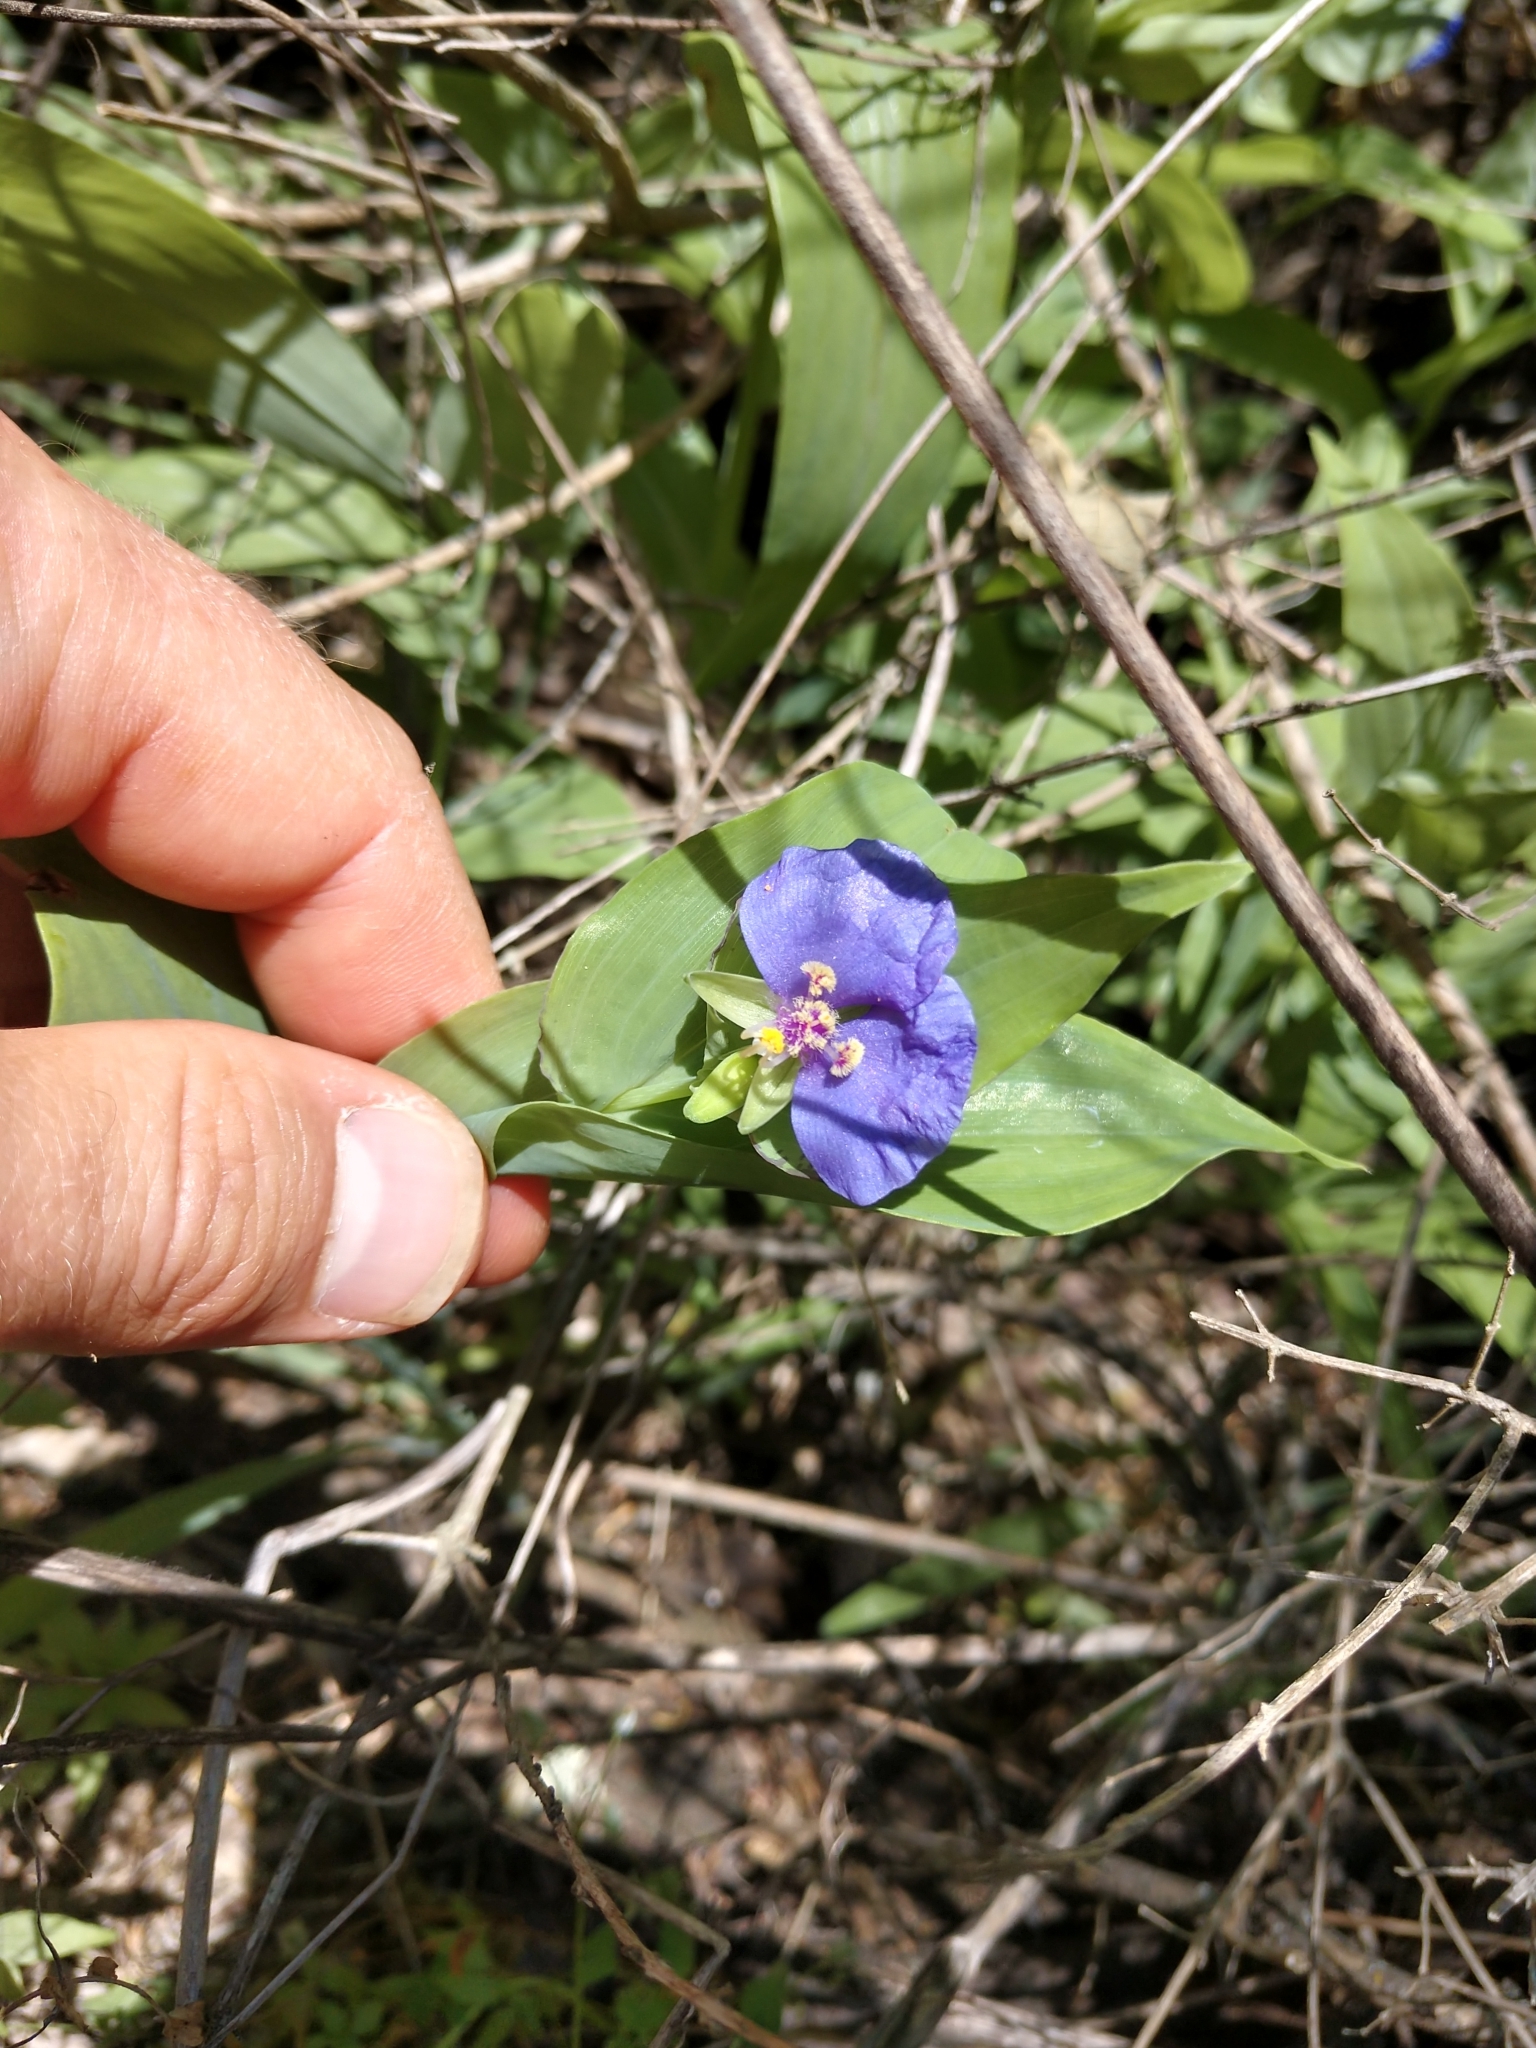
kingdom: Plantae
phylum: Tracheophyta
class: Liliopsida
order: Commelinales
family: Commelinaceae
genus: Tinantia
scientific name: Tinantia anomala
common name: False dayflower
